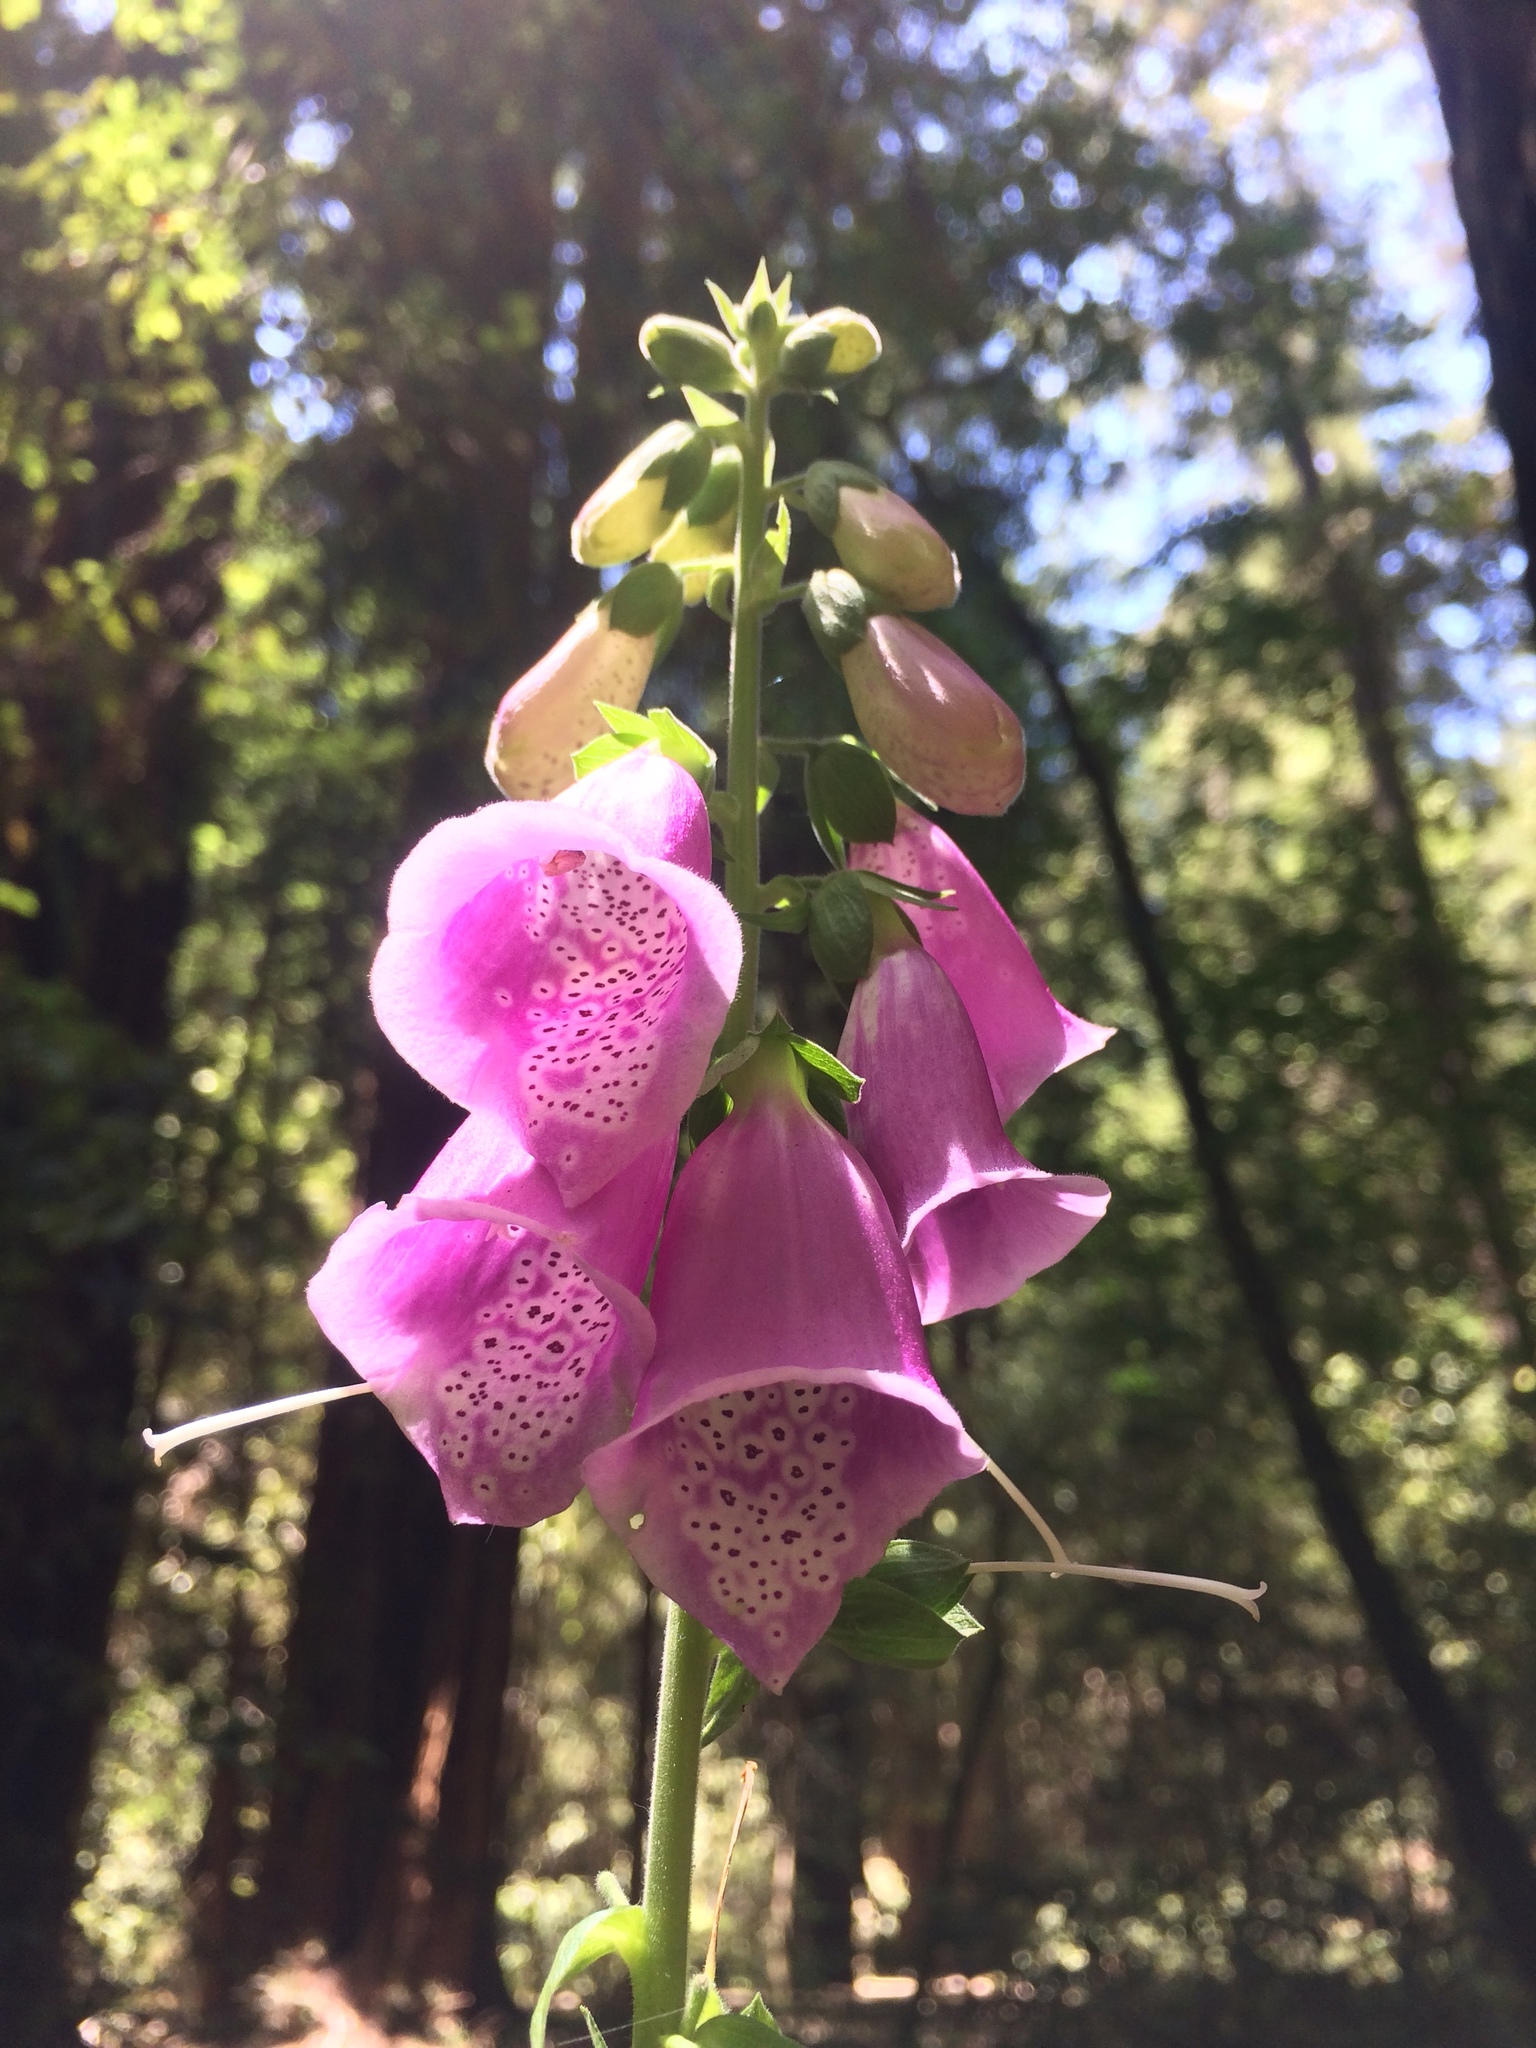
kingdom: Plantae
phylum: Tracheophyta
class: Magnoliopsida
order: Lamiales
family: Plantaginaceae
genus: Digitalis
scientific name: Digitalis purpurea
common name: Foxglove
